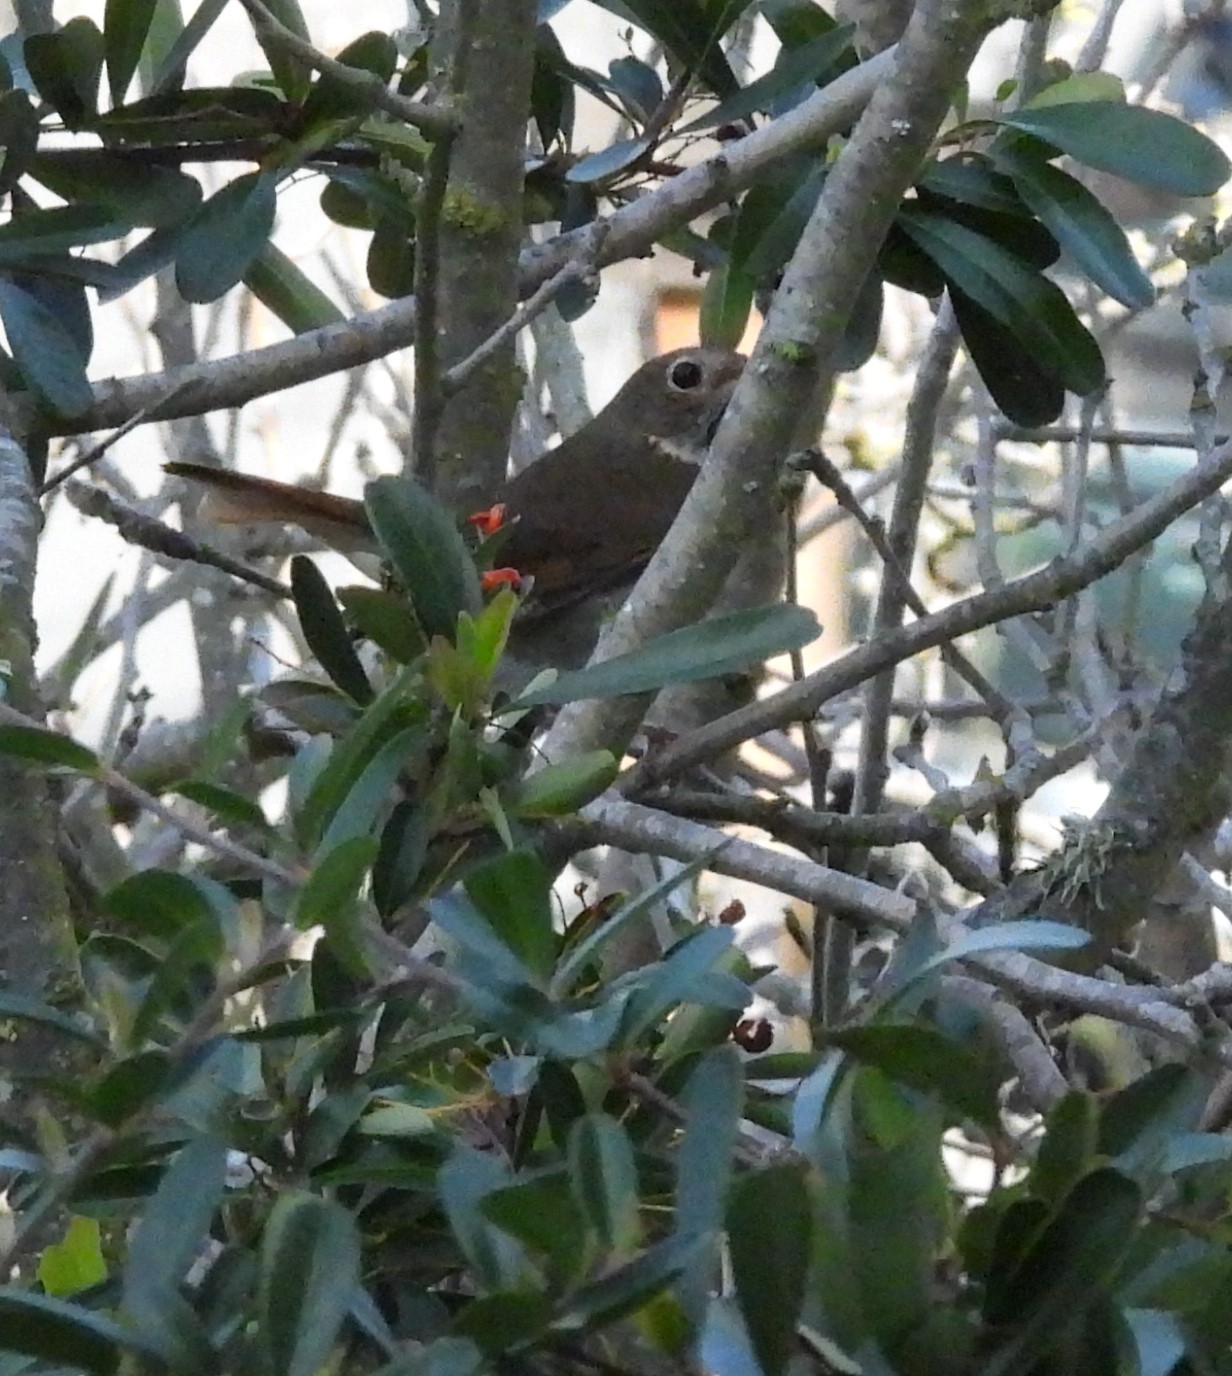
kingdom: Animalia
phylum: Chordata
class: Aves
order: Passeriformes
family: Turdidae
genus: Catharus
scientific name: Catharus guttatus
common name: Hermit thrush
